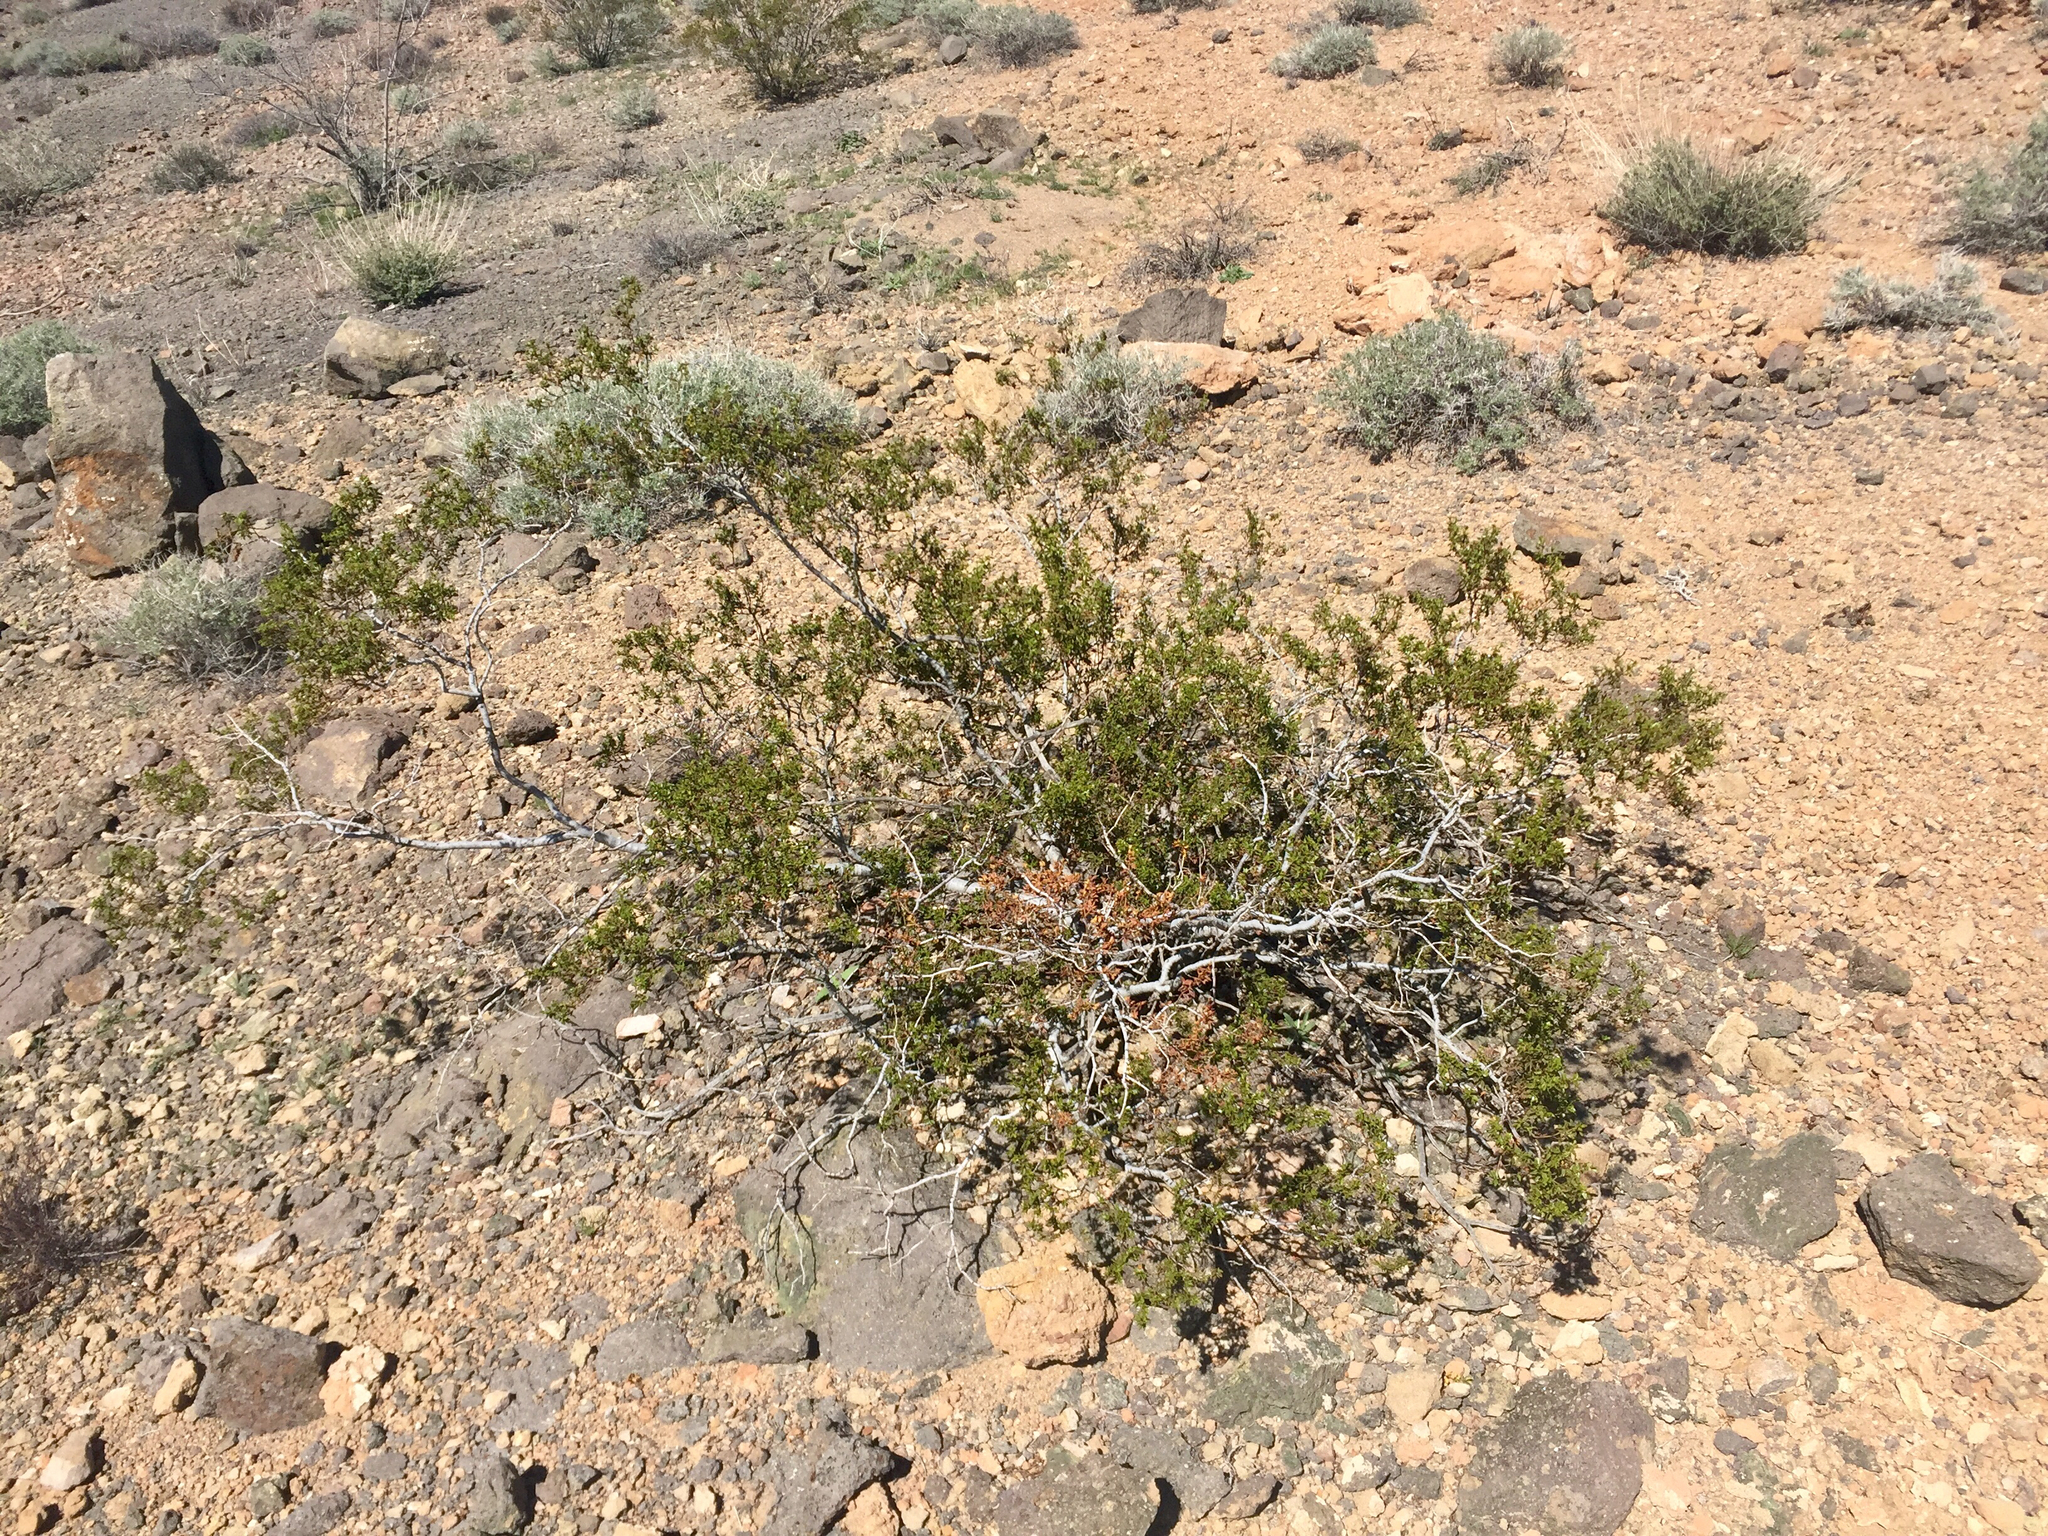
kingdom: Plantae
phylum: Tracheophyta
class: Magnoliopsida
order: Zygophyllales
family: Zygophyllaceae
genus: Larrea
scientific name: Larrea tridentata
